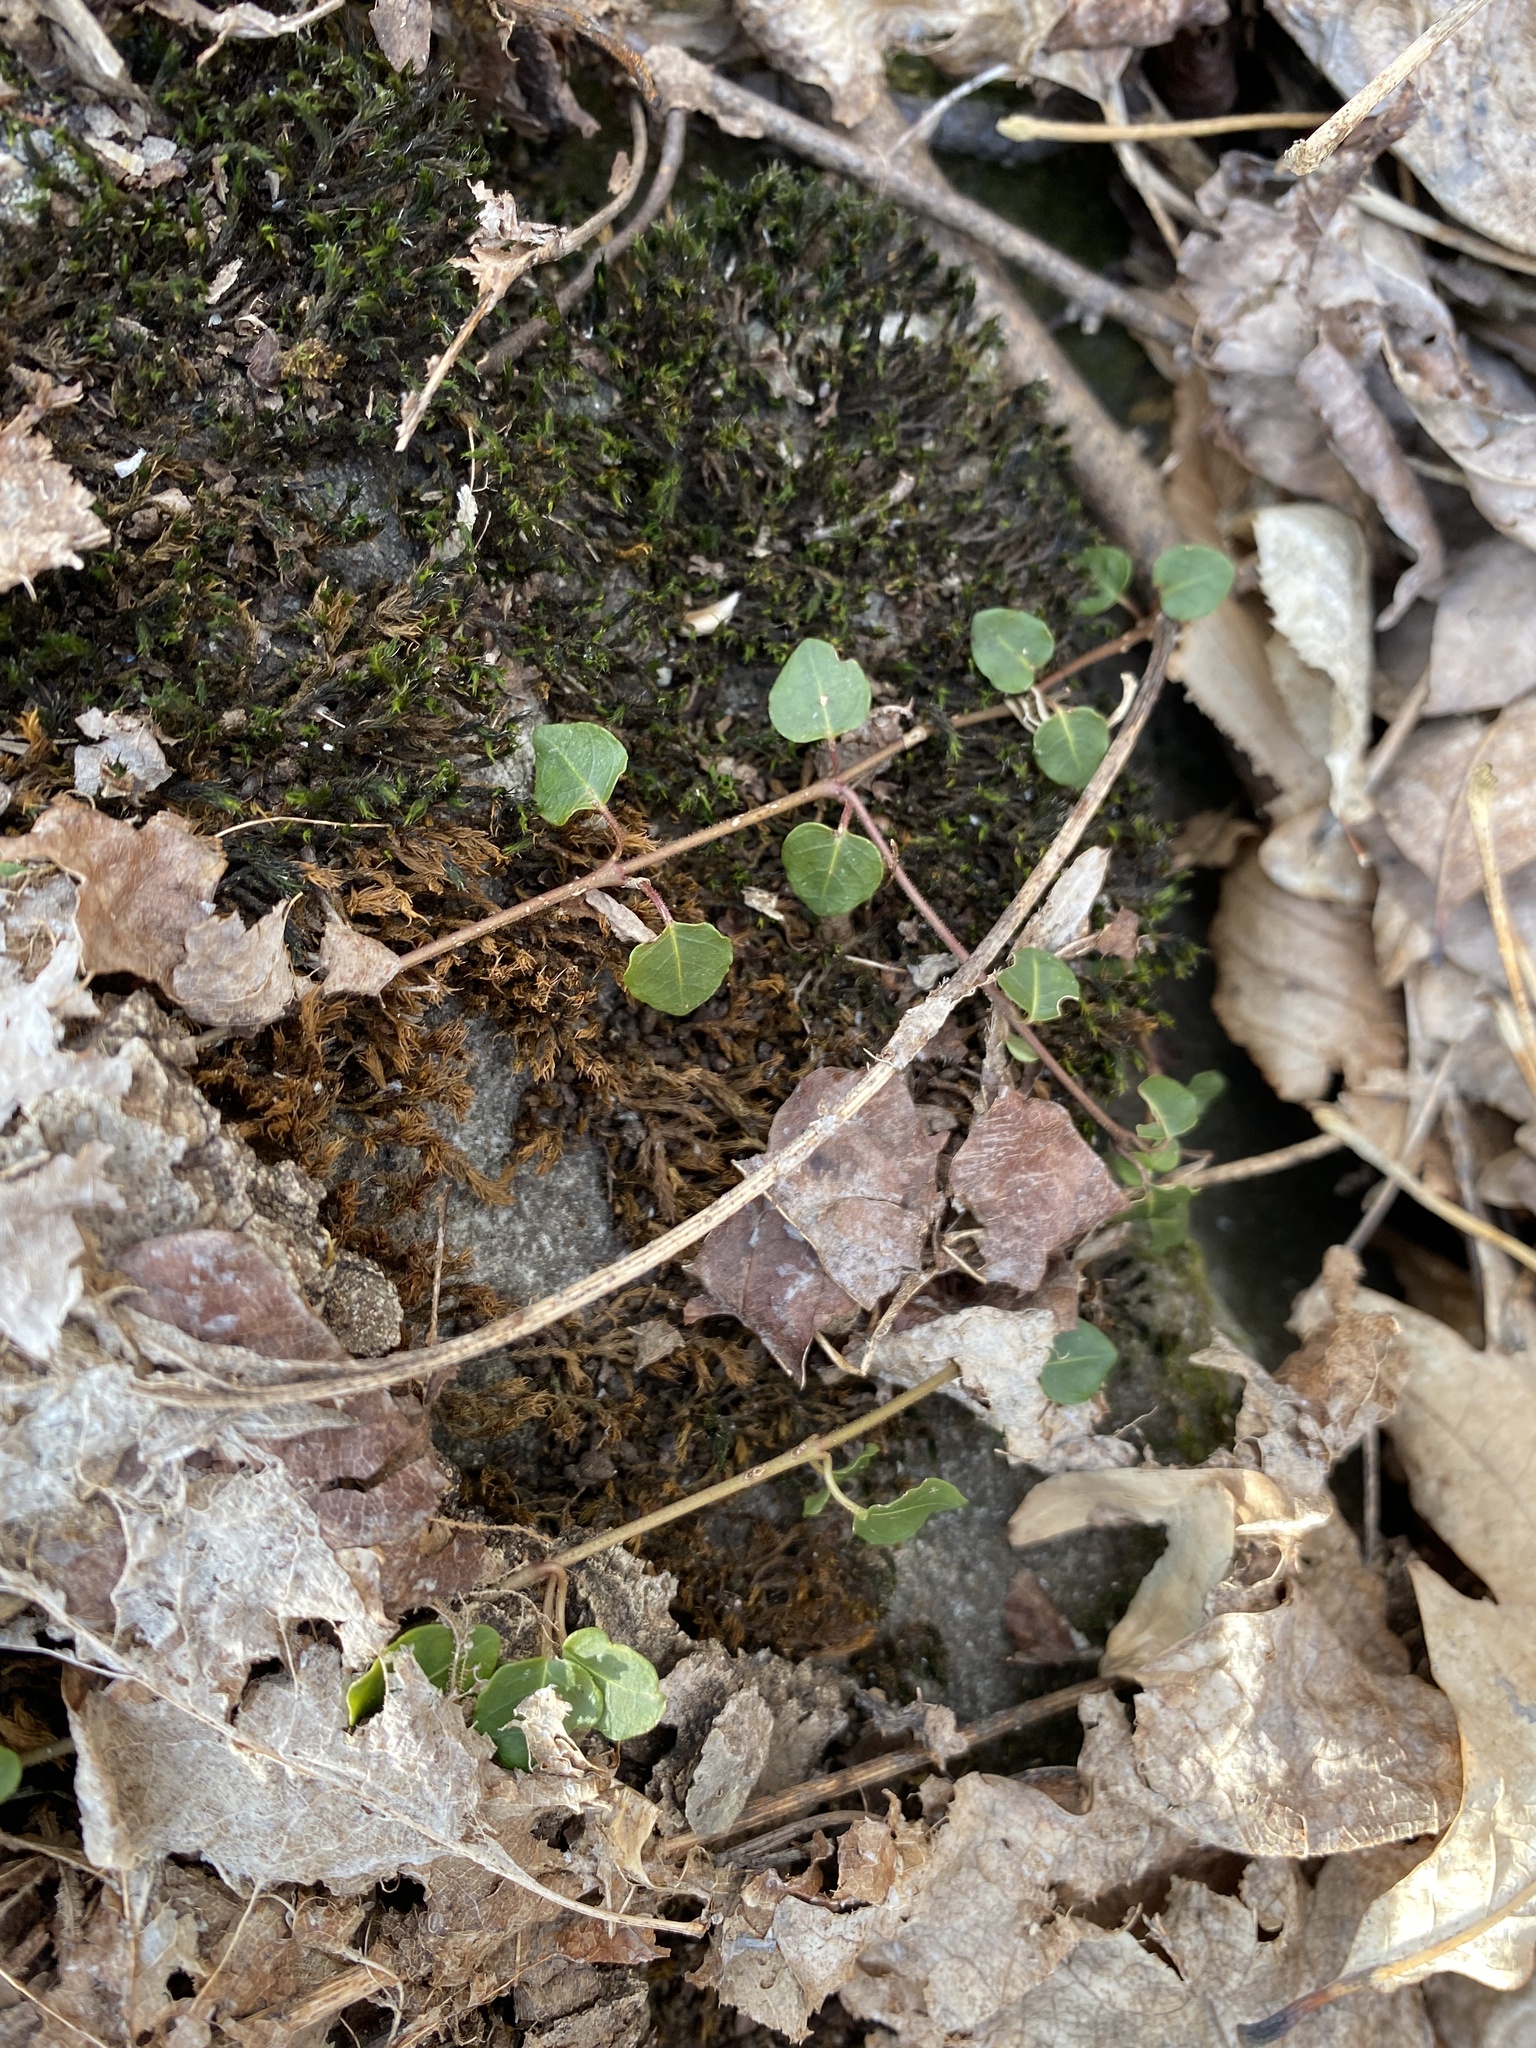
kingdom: Plantae
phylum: Tracheophyta
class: Magnoliopsida
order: Gentianales
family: Rubiaceae
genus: Mitchella
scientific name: Mitchella repens
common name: Partridge-berry
